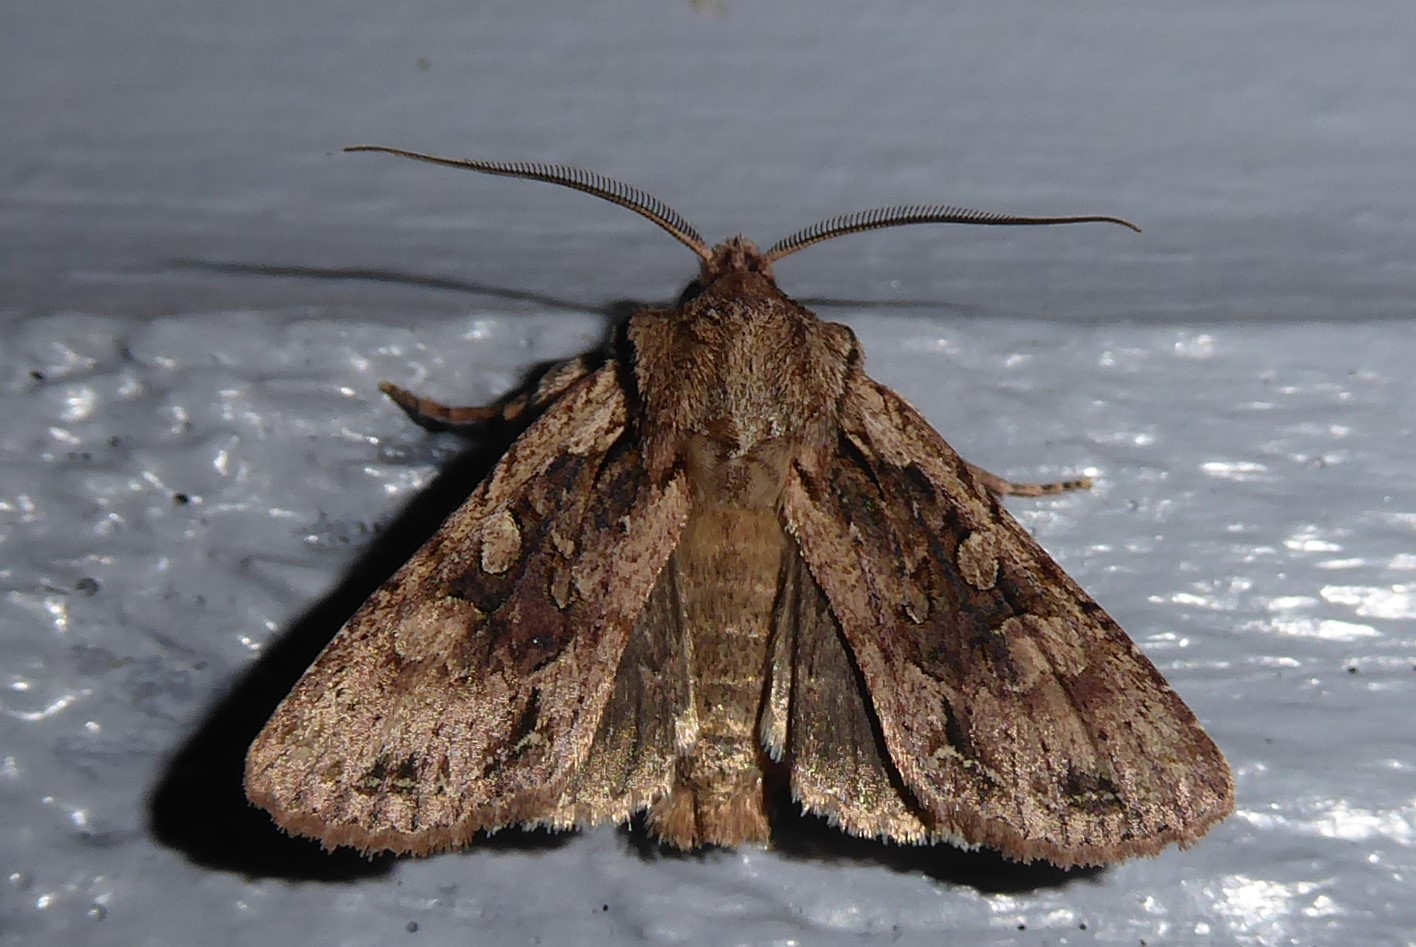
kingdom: Animalia
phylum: Arthropoda
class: Insecta
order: Lepidoptera
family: Noctuidae
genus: Ichneutica
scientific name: Ichneutica
